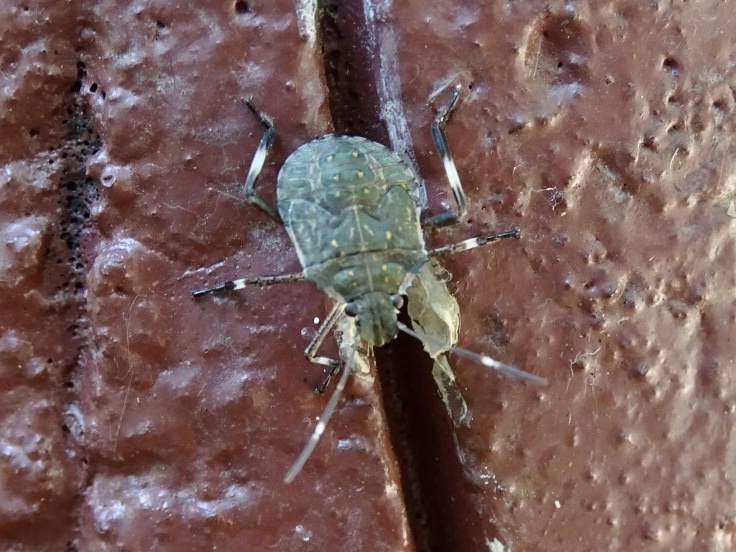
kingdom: Animalia
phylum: Arthropoda
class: Insecta
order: Hemiptera
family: Pentatomidae
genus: Halyomorpha
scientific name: Halyomorpha halys
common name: Brown marmorated stink bug
